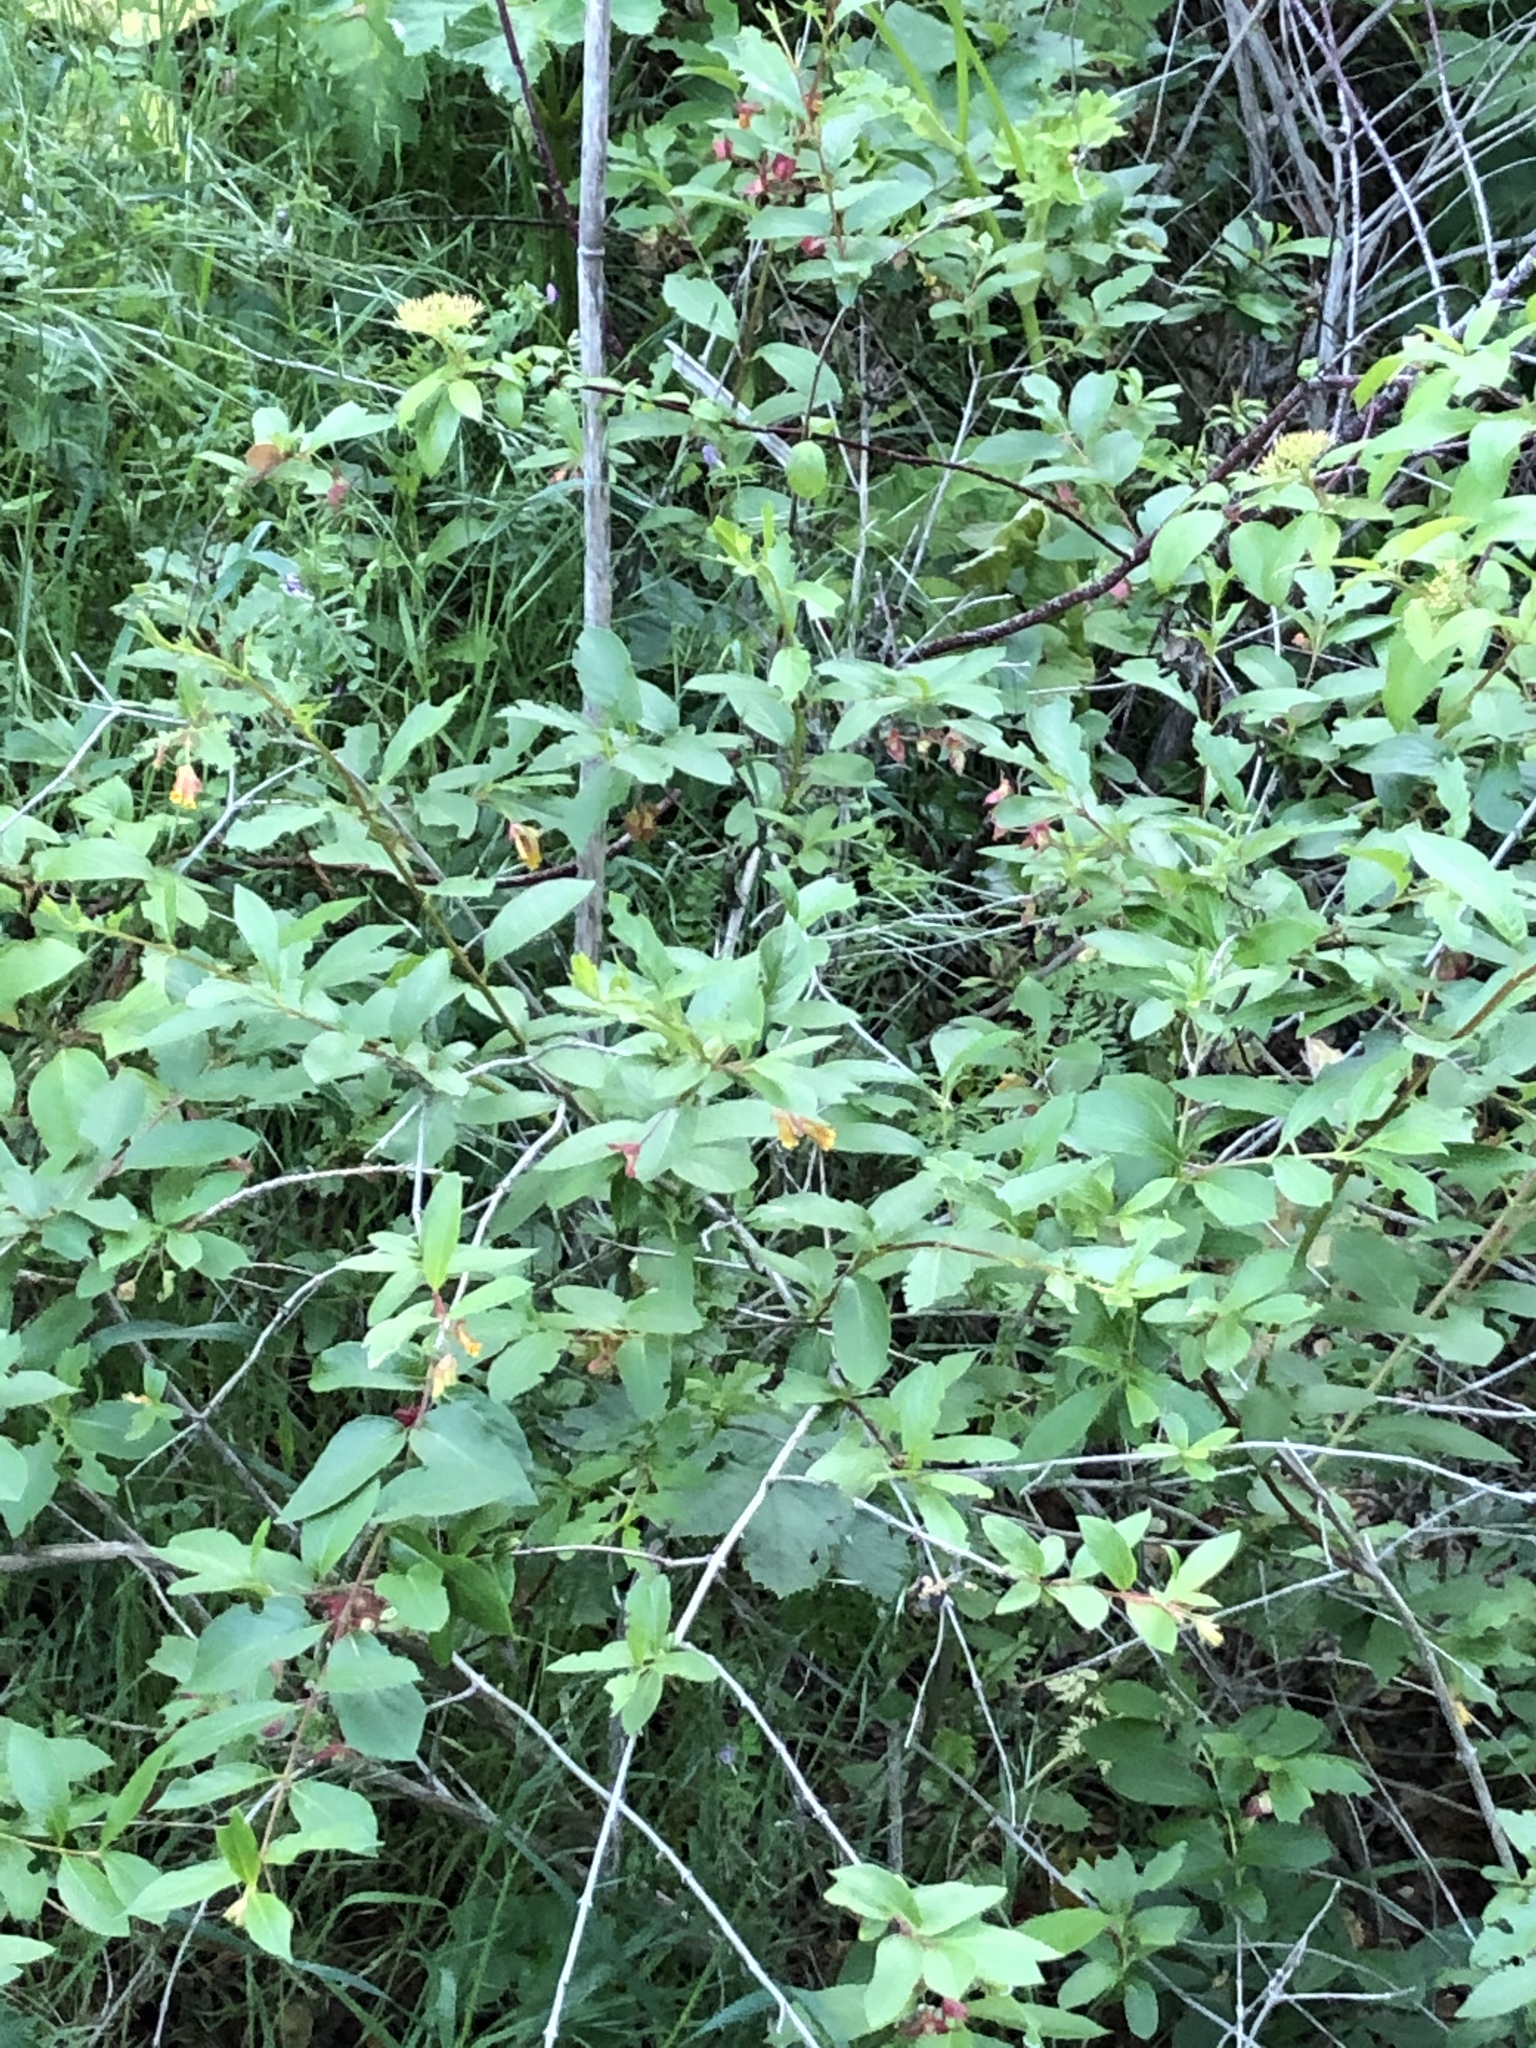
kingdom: Plantae
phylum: Tracheophyta
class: Magnoliopsida
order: Dipsacales
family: Caprifoliaceae
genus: Lonicera
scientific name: Lonicera involucrata
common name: Californian honeysuckle
